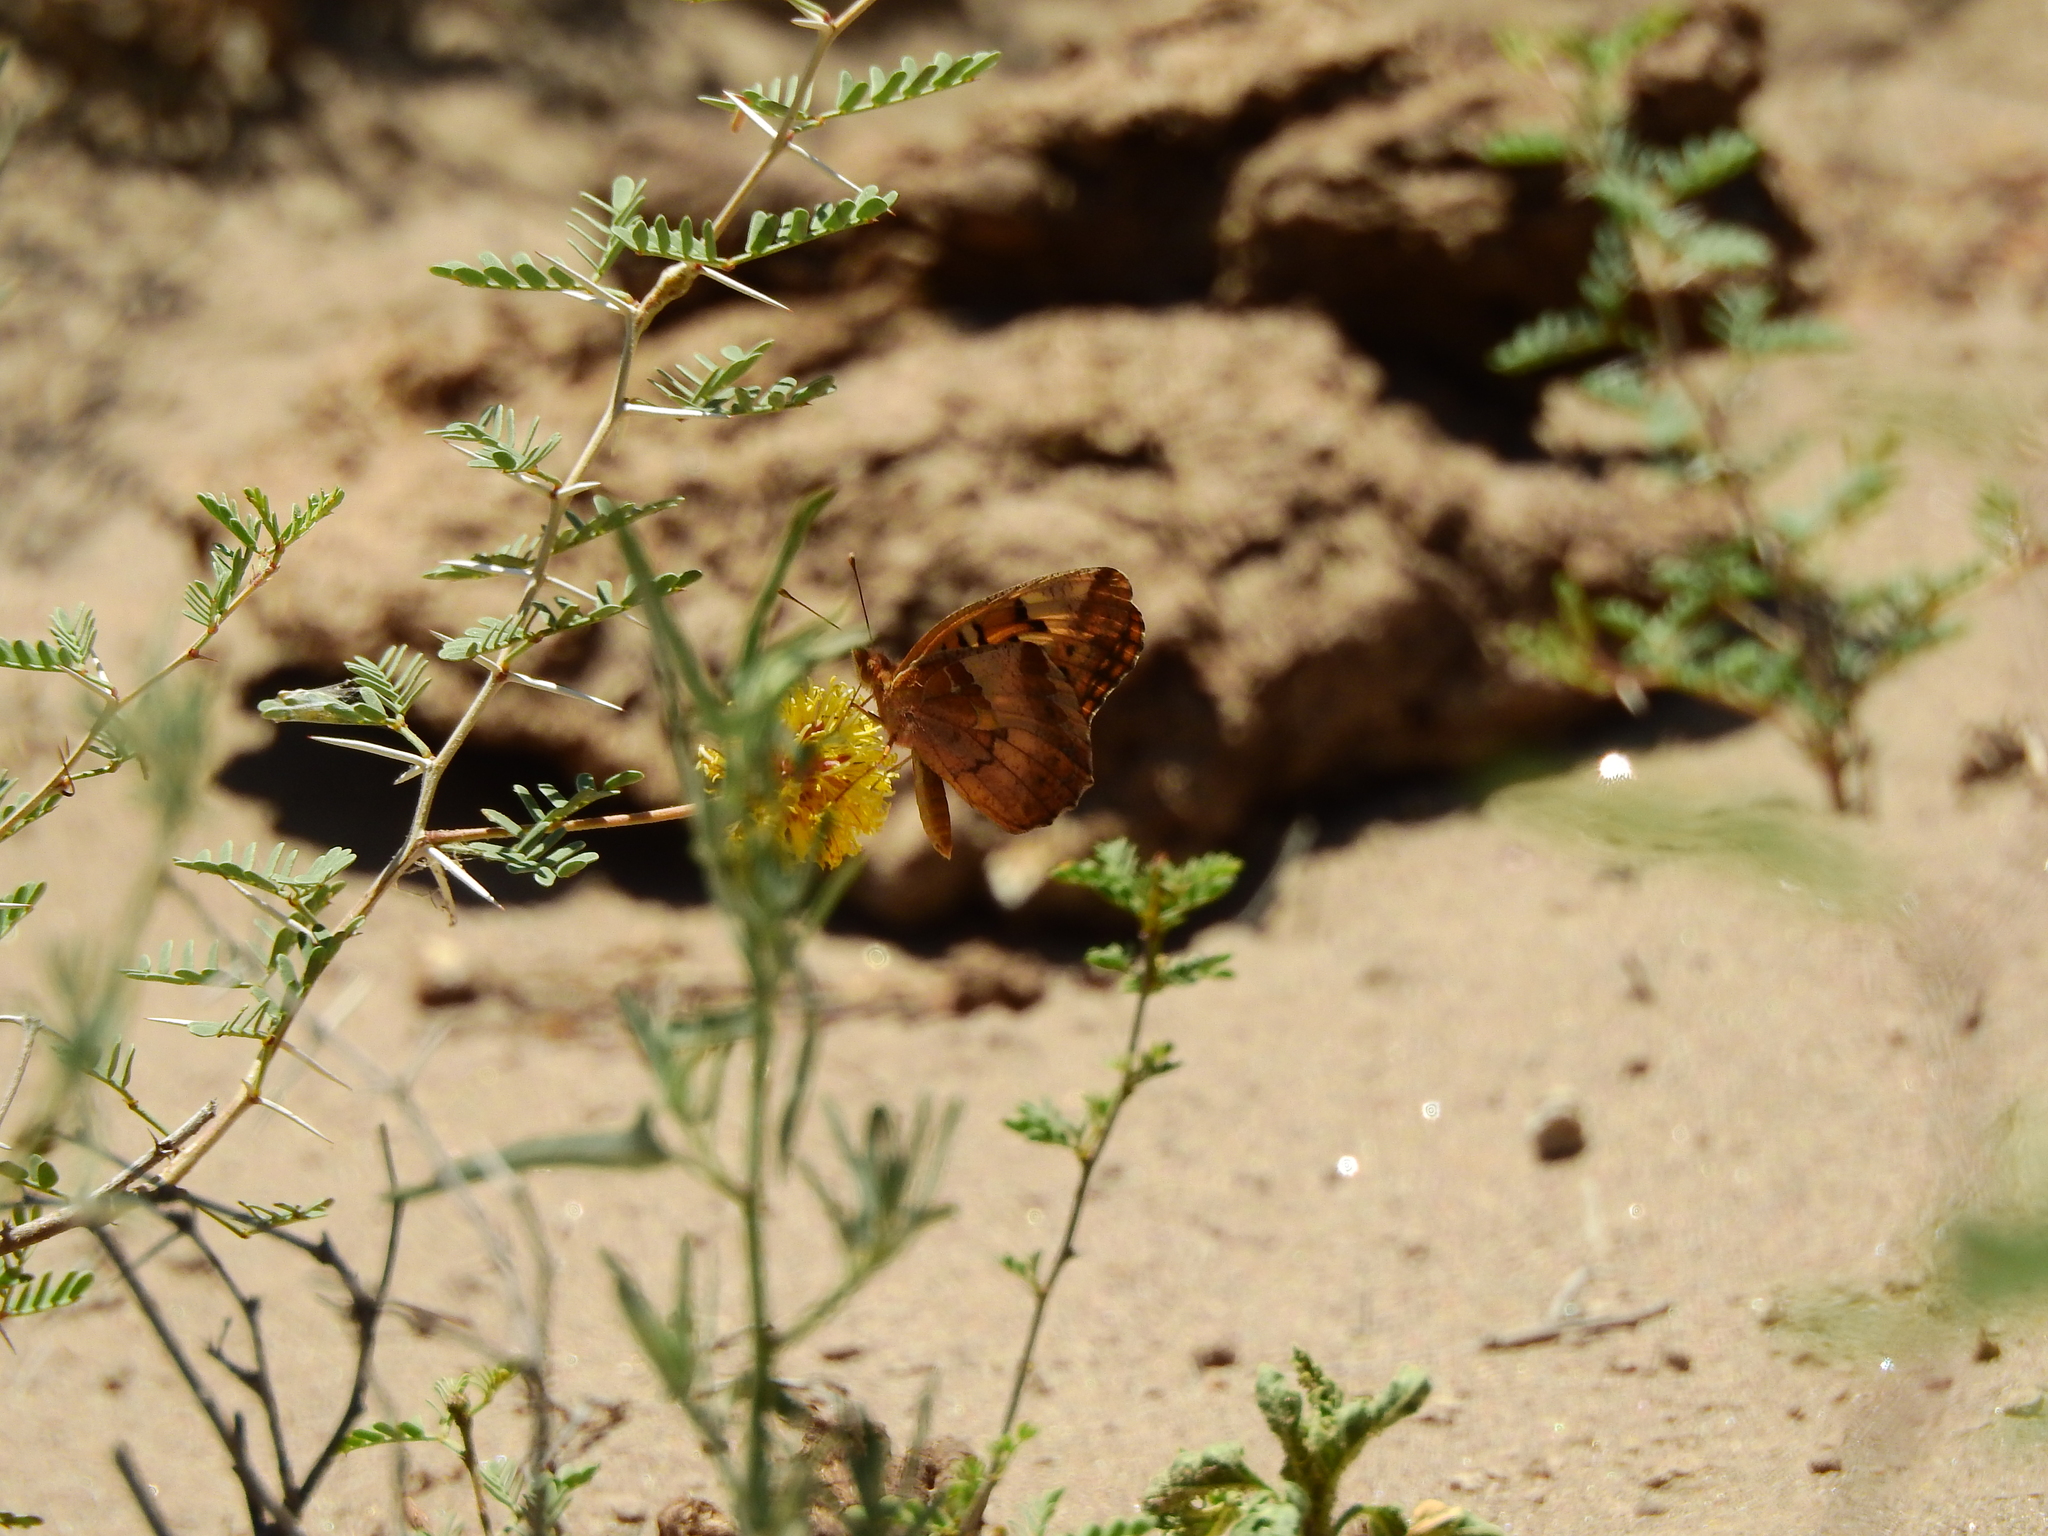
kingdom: Animalia
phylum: Arthropoda
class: Insecta
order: Lepidoptera
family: Nymphalidae
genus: Euptoieta
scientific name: Euptoieta hortensia
